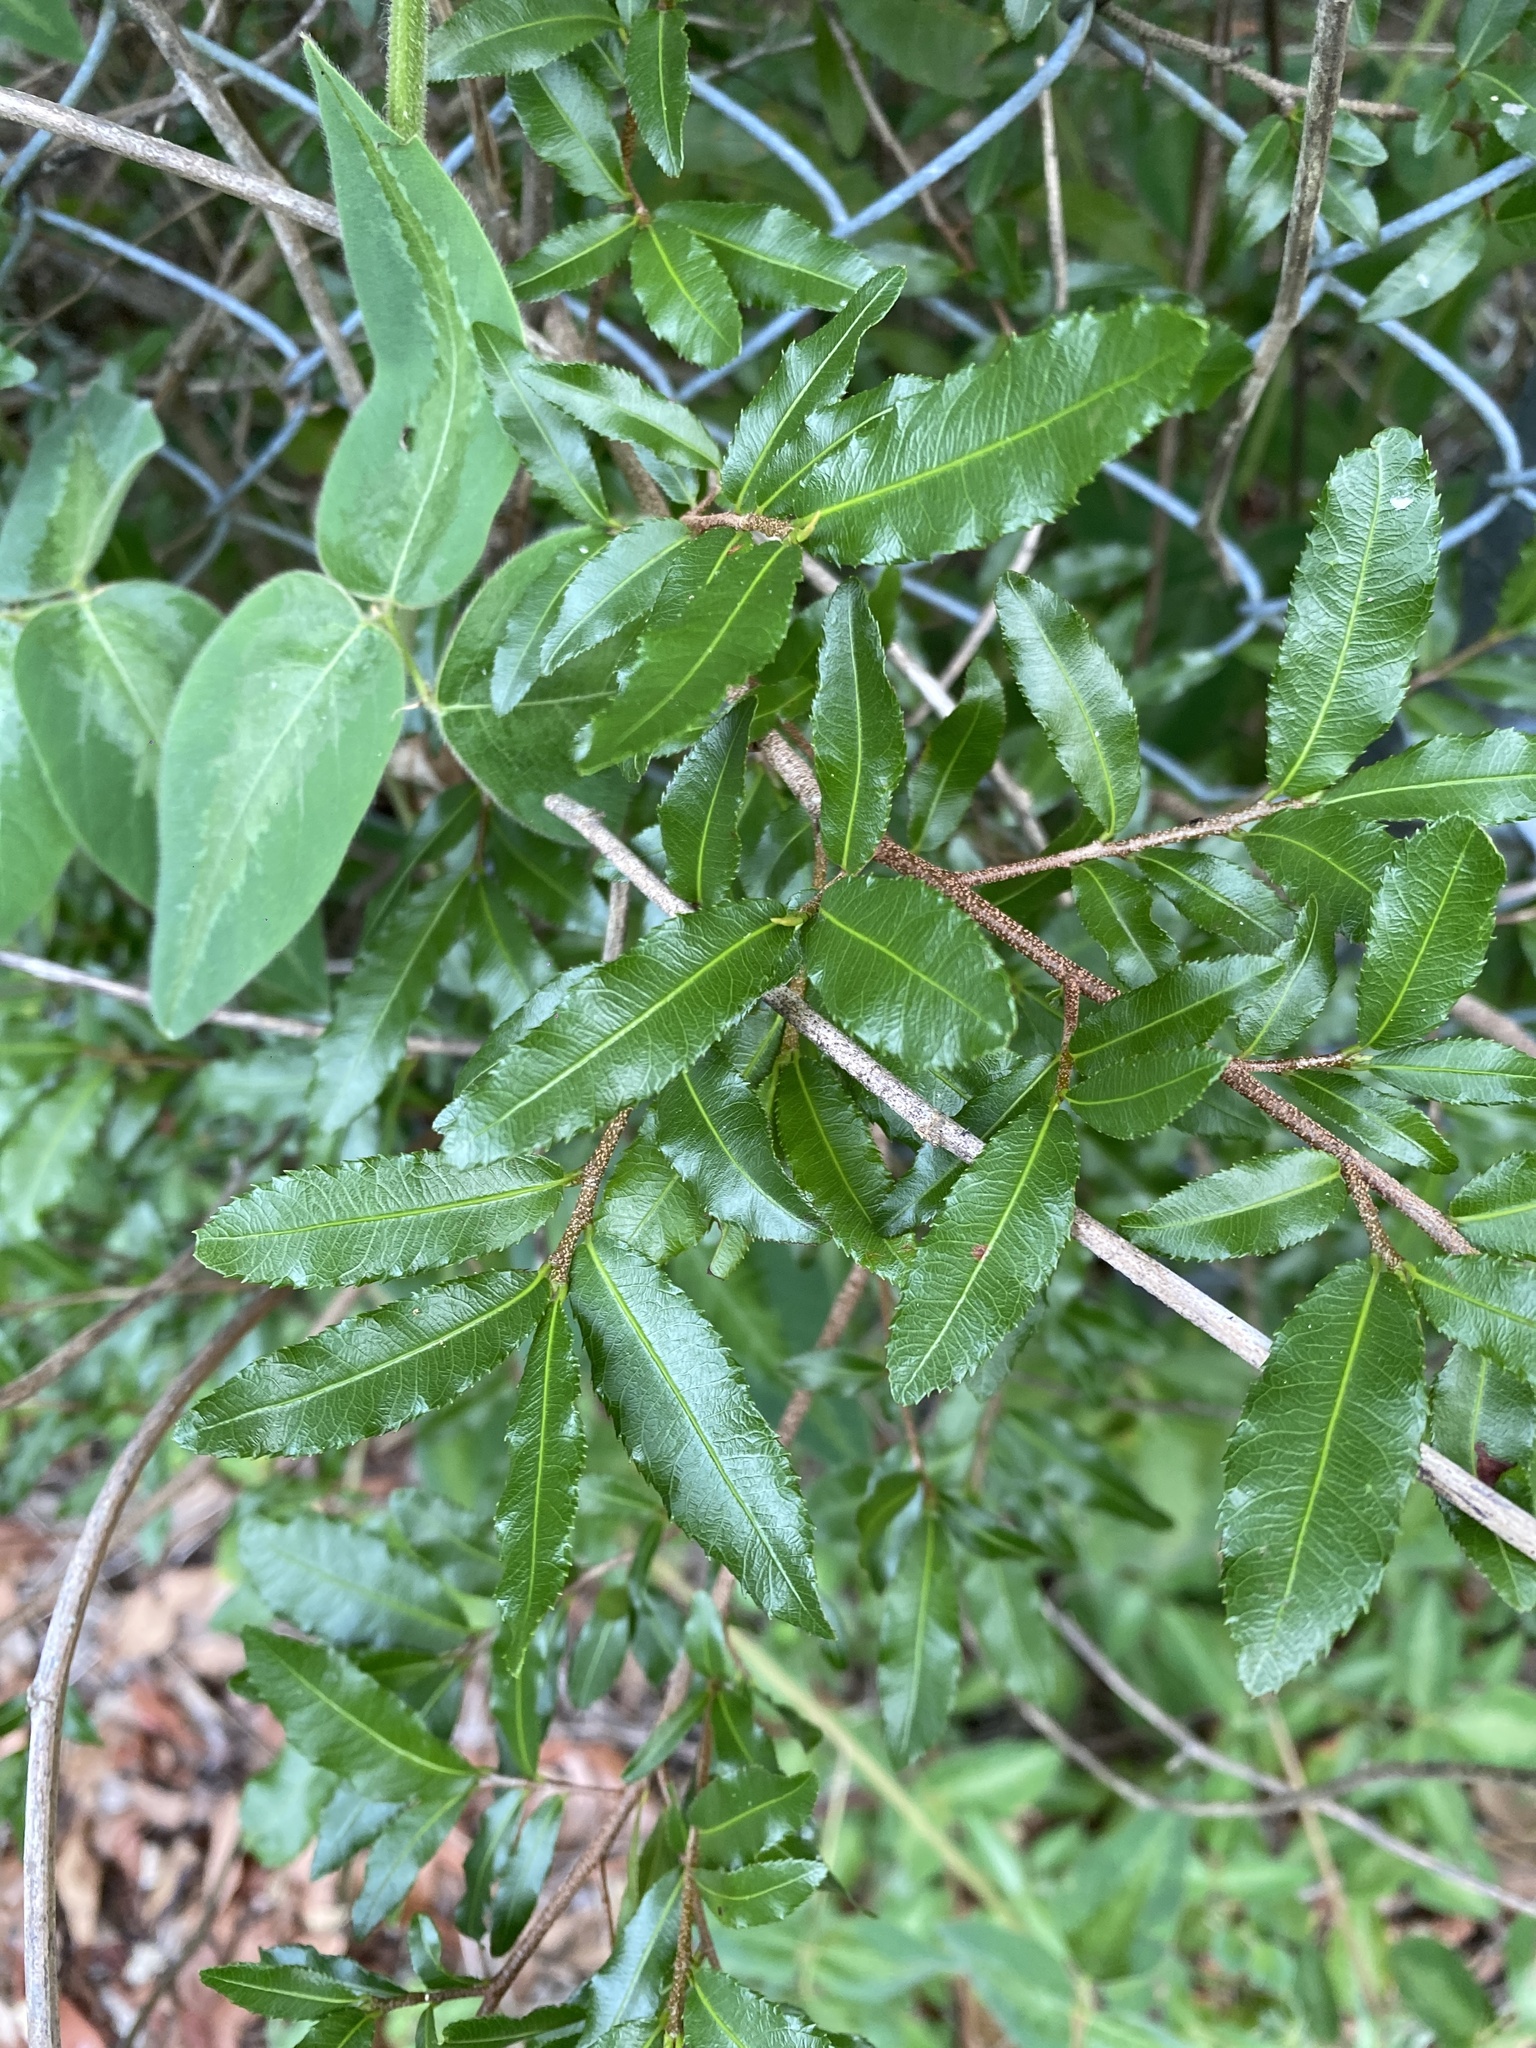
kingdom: Plantae
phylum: Tracheophyta
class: Magnoliopsida
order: Malpighiales
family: Ochnaceae
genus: Ochna
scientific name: Ochna serrulata
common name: Mickey mouse plant
